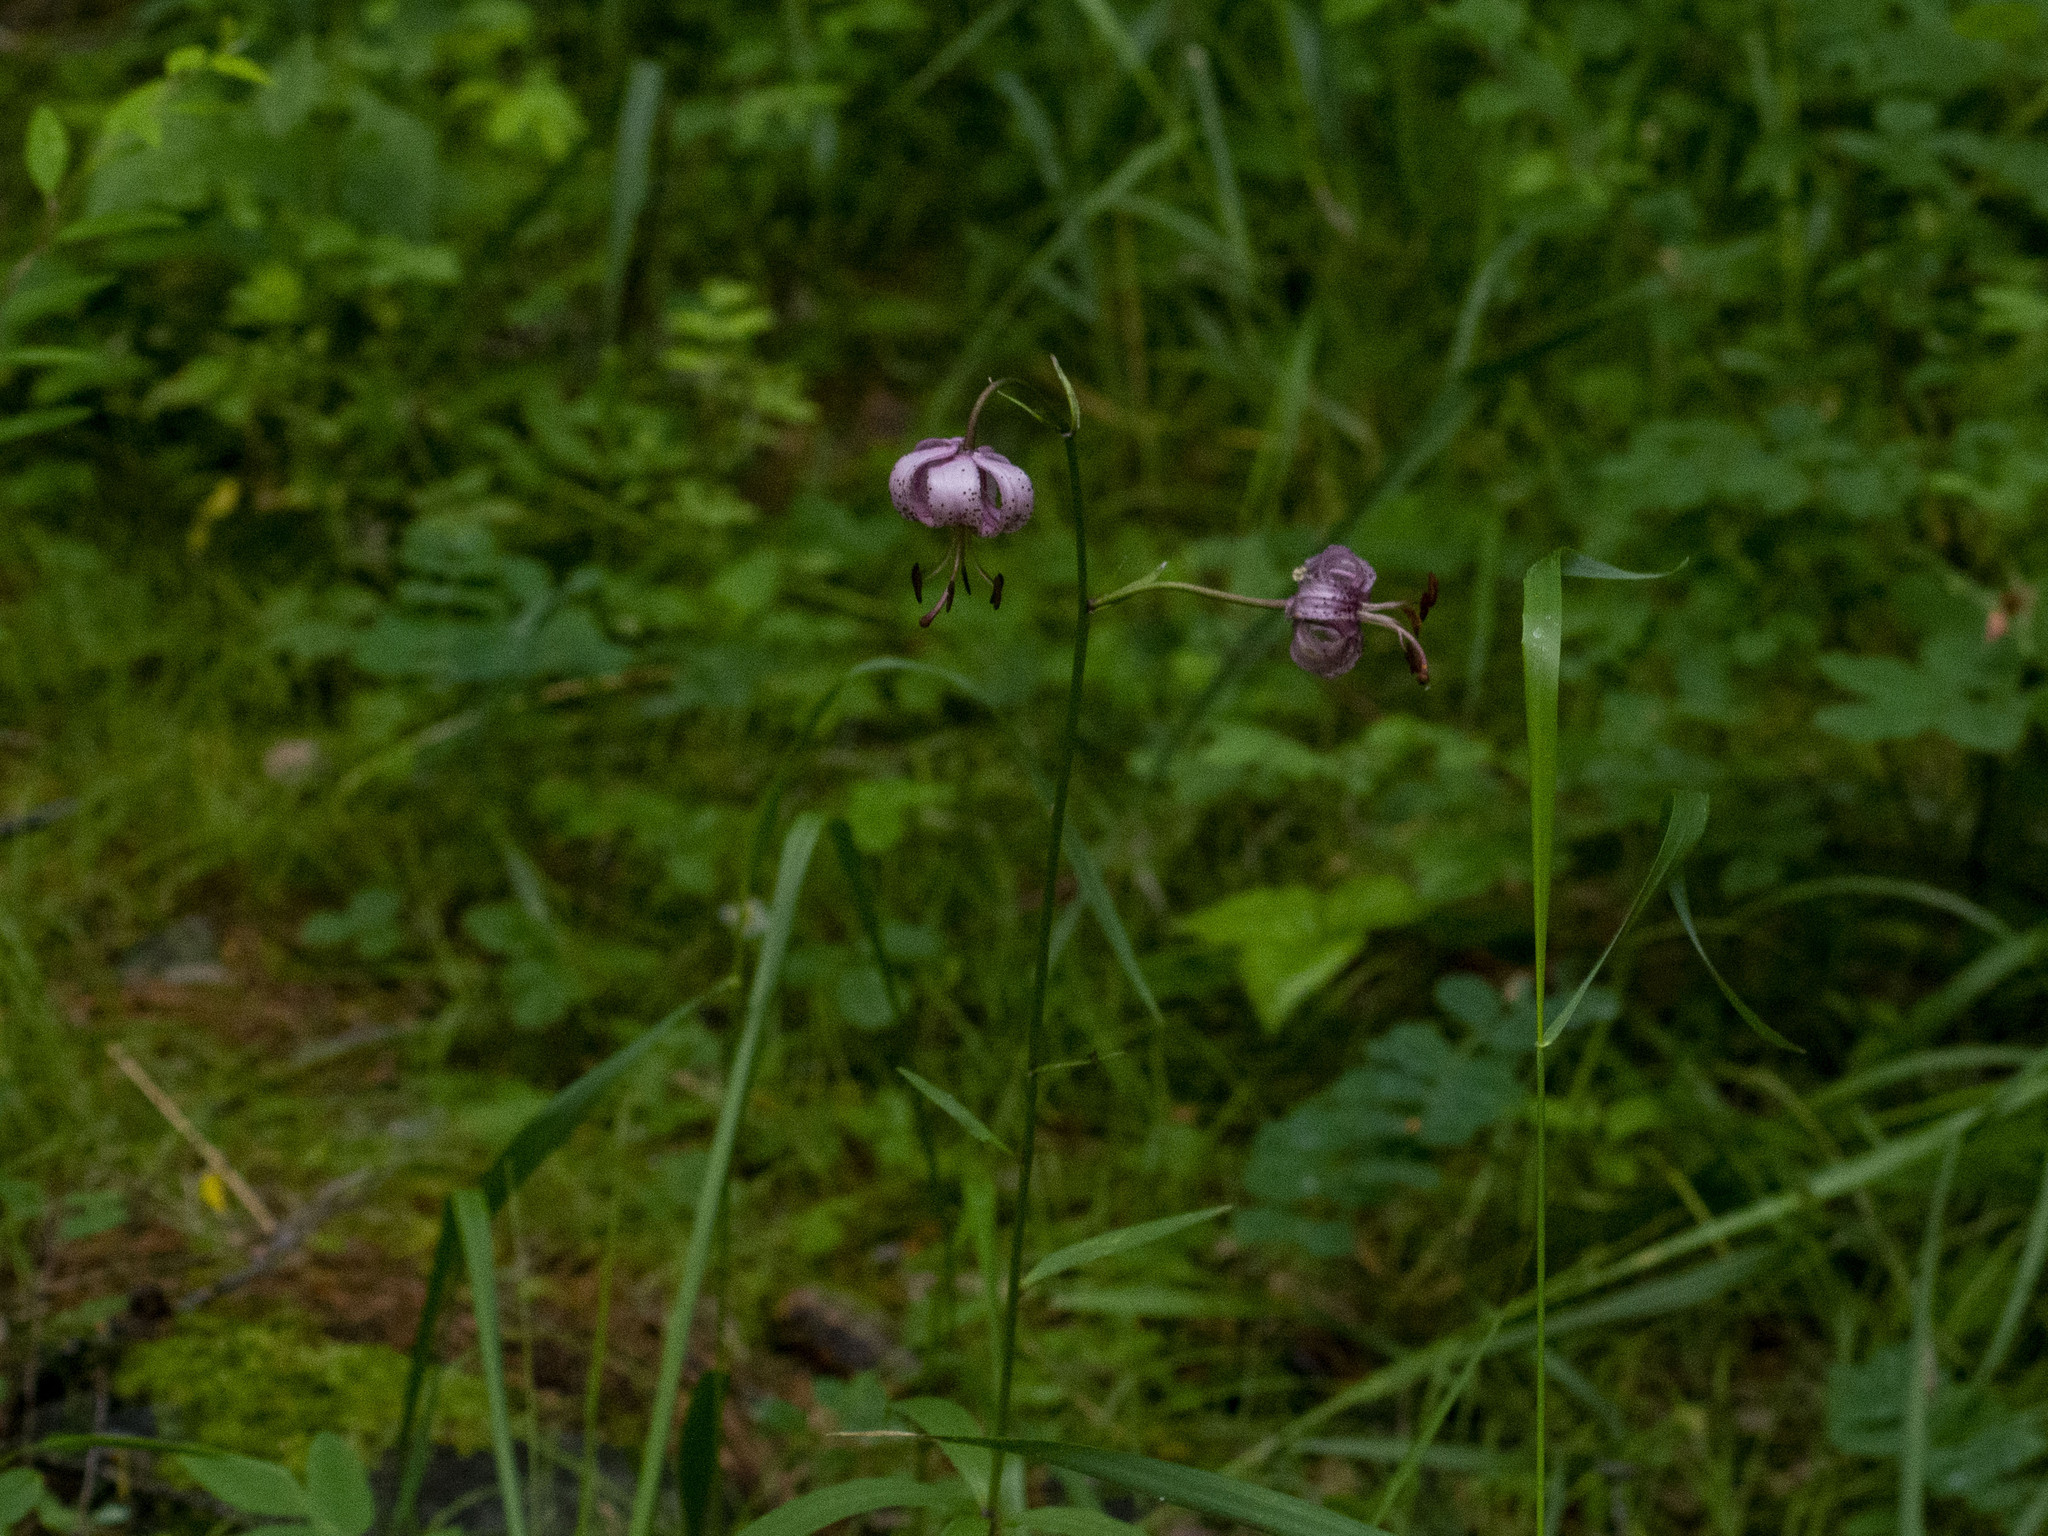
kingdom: Plantae
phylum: Tracheophyta
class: Liliopsida
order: Liliales
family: Liliaceae
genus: Lilium
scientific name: Lilium martagon
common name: Martagon lily
